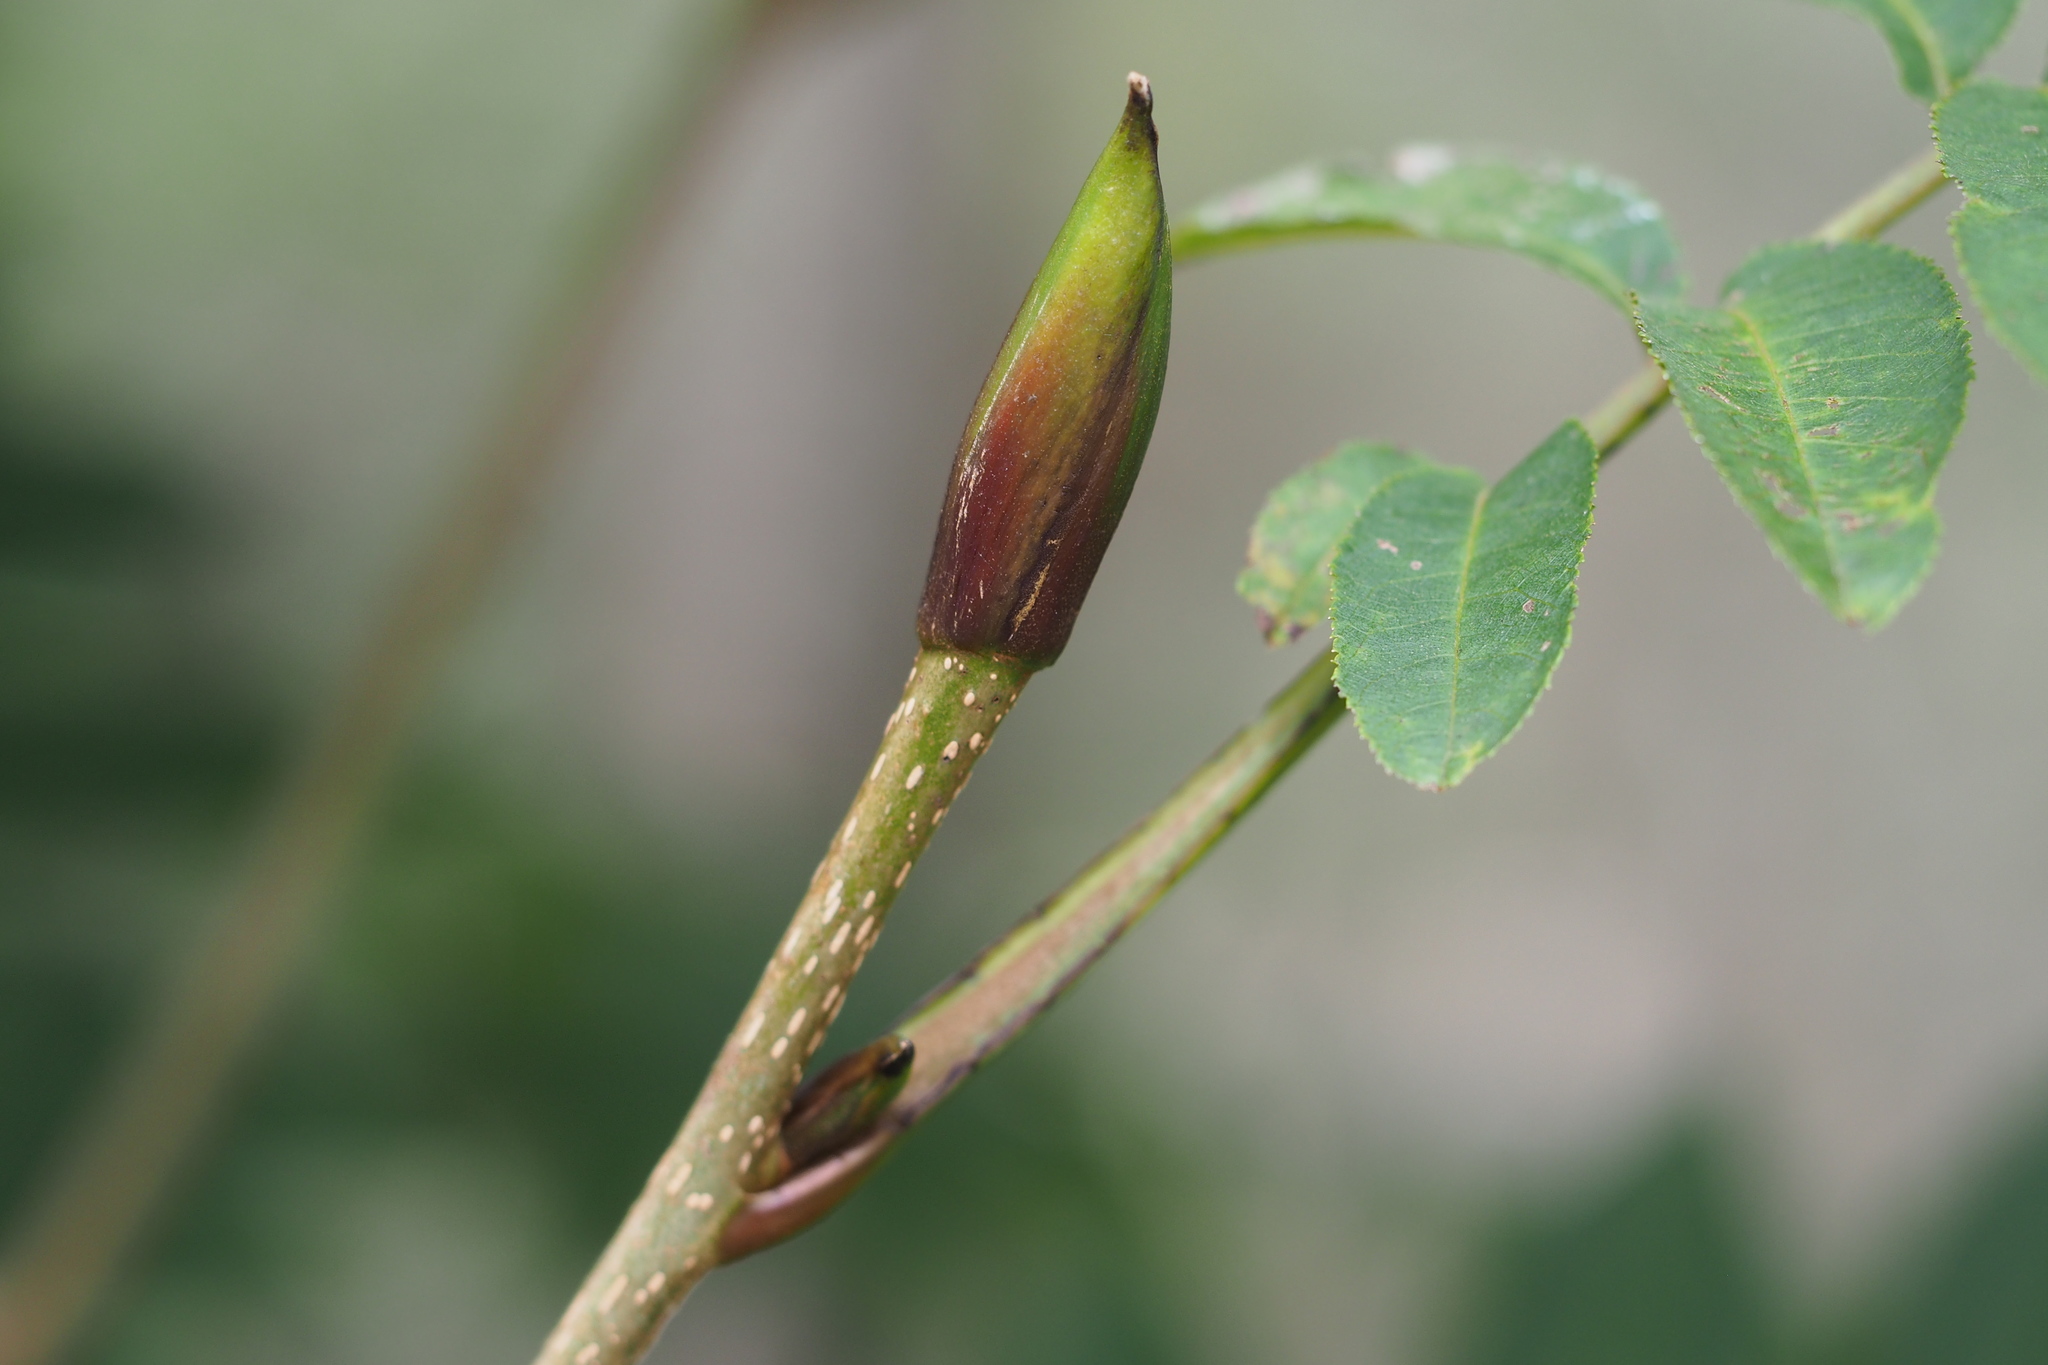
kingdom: Plantae
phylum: Tracheophyta
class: Magnoliopsida
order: Fagales
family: Juglandaceae
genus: Pterocarya
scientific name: Pterocarya rhoifolia
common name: Japanese wingnut
